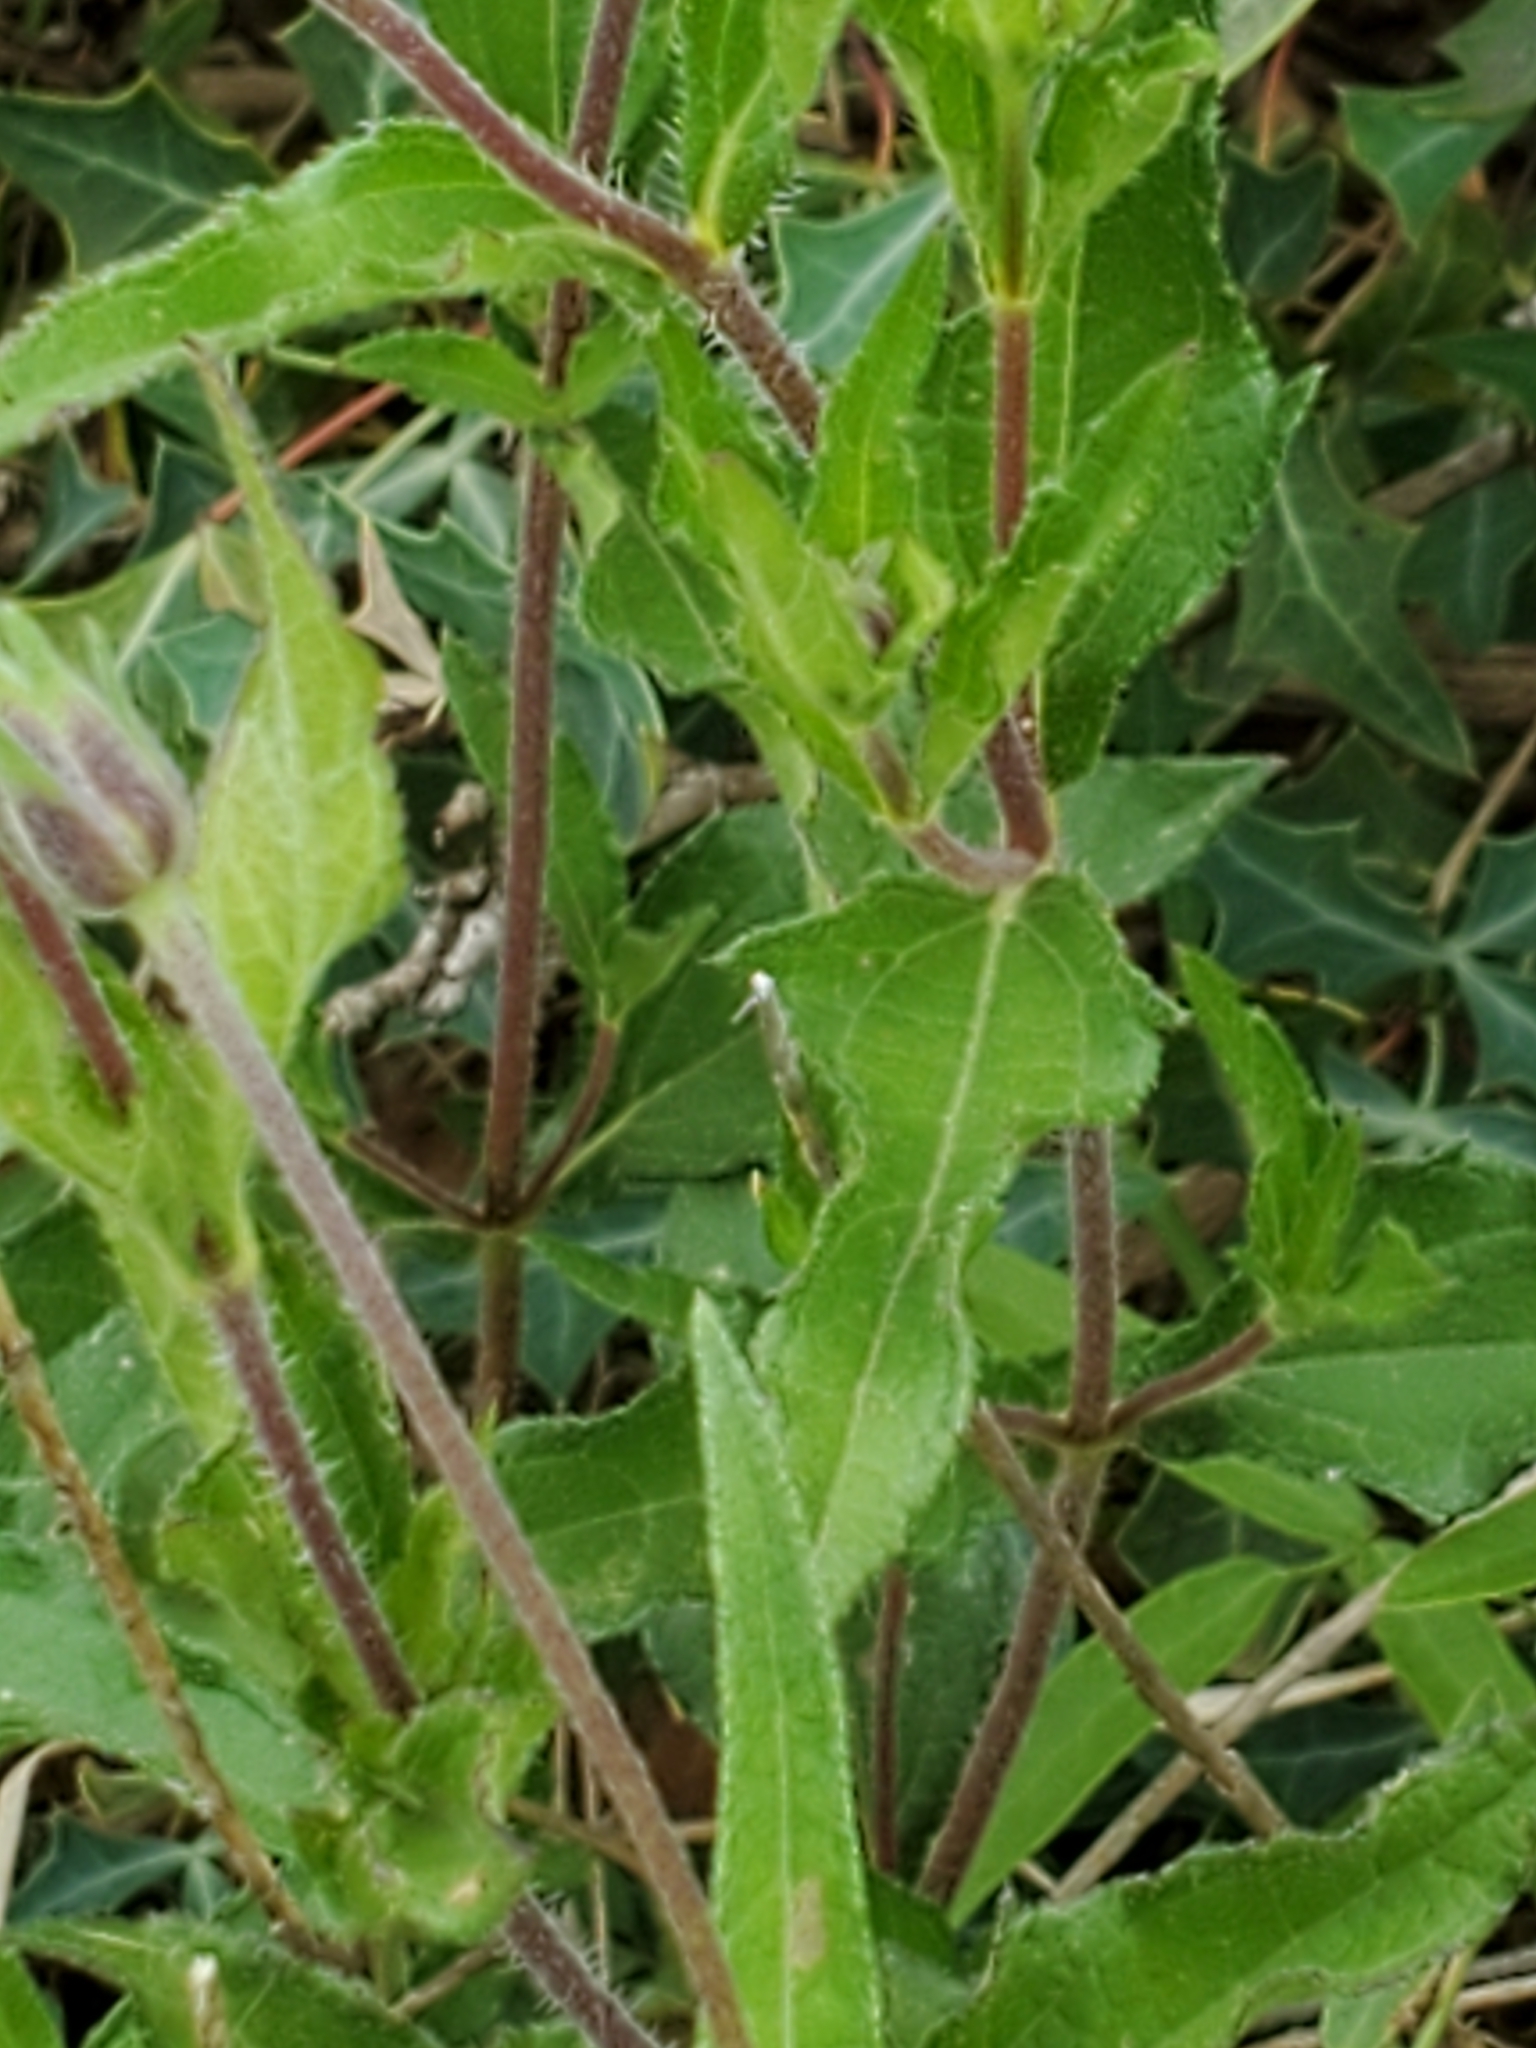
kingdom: Plantae
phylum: Tracheophyta
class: Magnoliopsida
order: Asterales
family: Asteraceae
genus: Wedelia
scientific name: Wedelia acapulcensis
